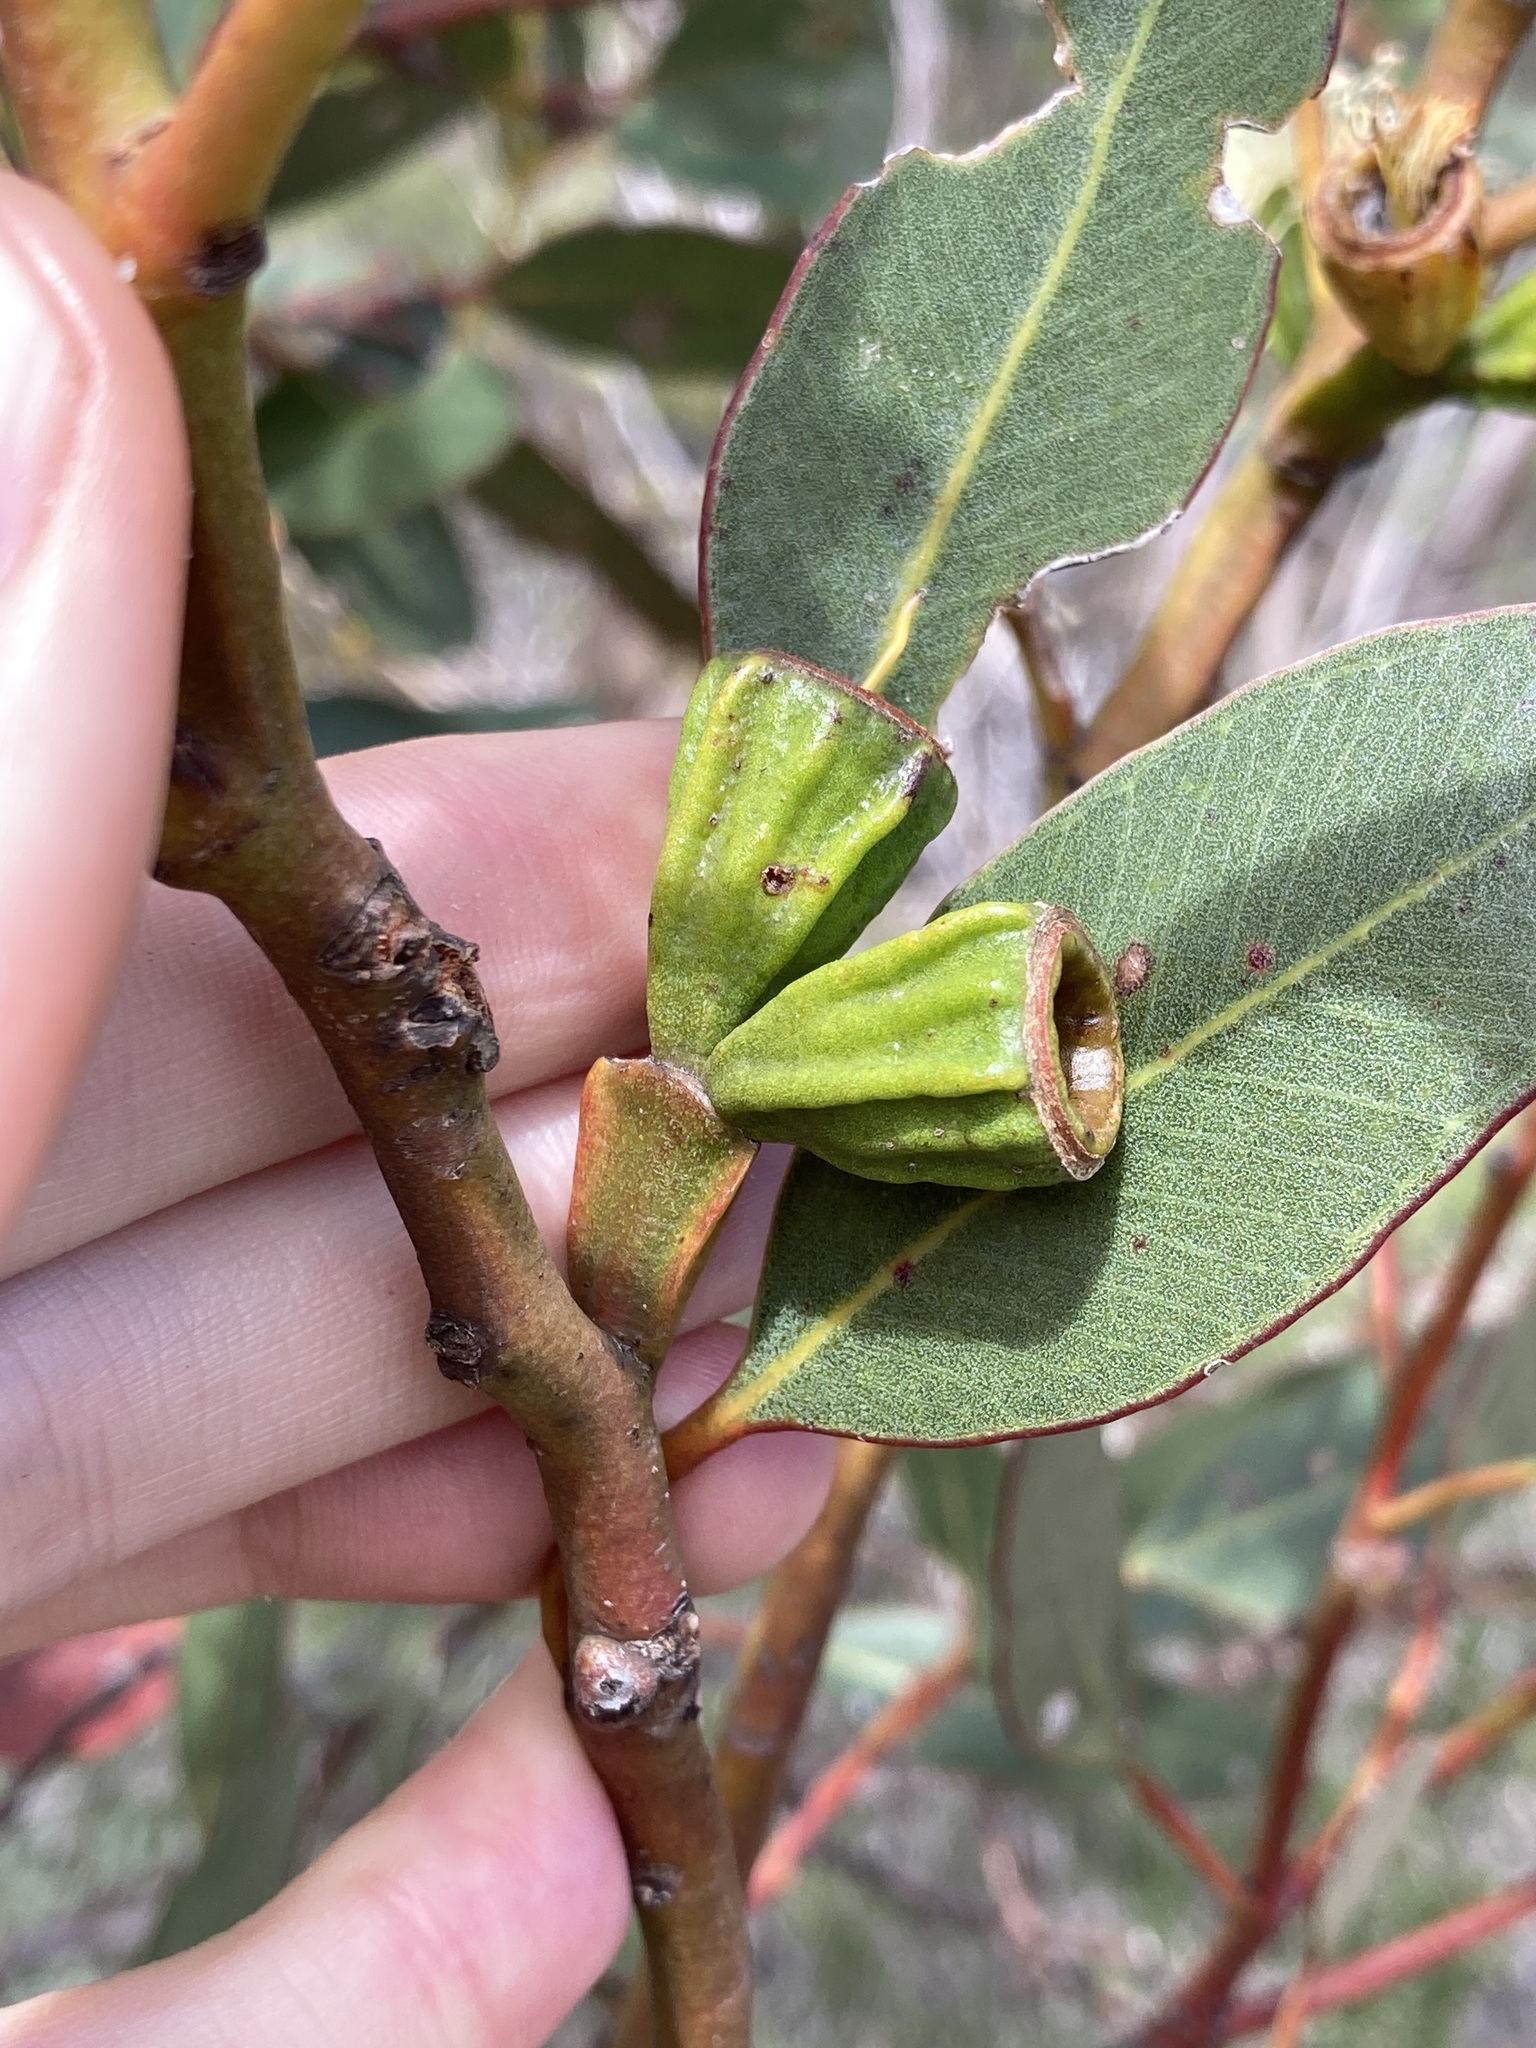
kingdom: Plantae
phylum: Tracheophyta
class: Magnoliopsida
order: Myrtales
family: Myrtaceae
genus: Eucalyptus
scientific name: Eucalyptus angulosa
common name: Ridge-fruited mallee
